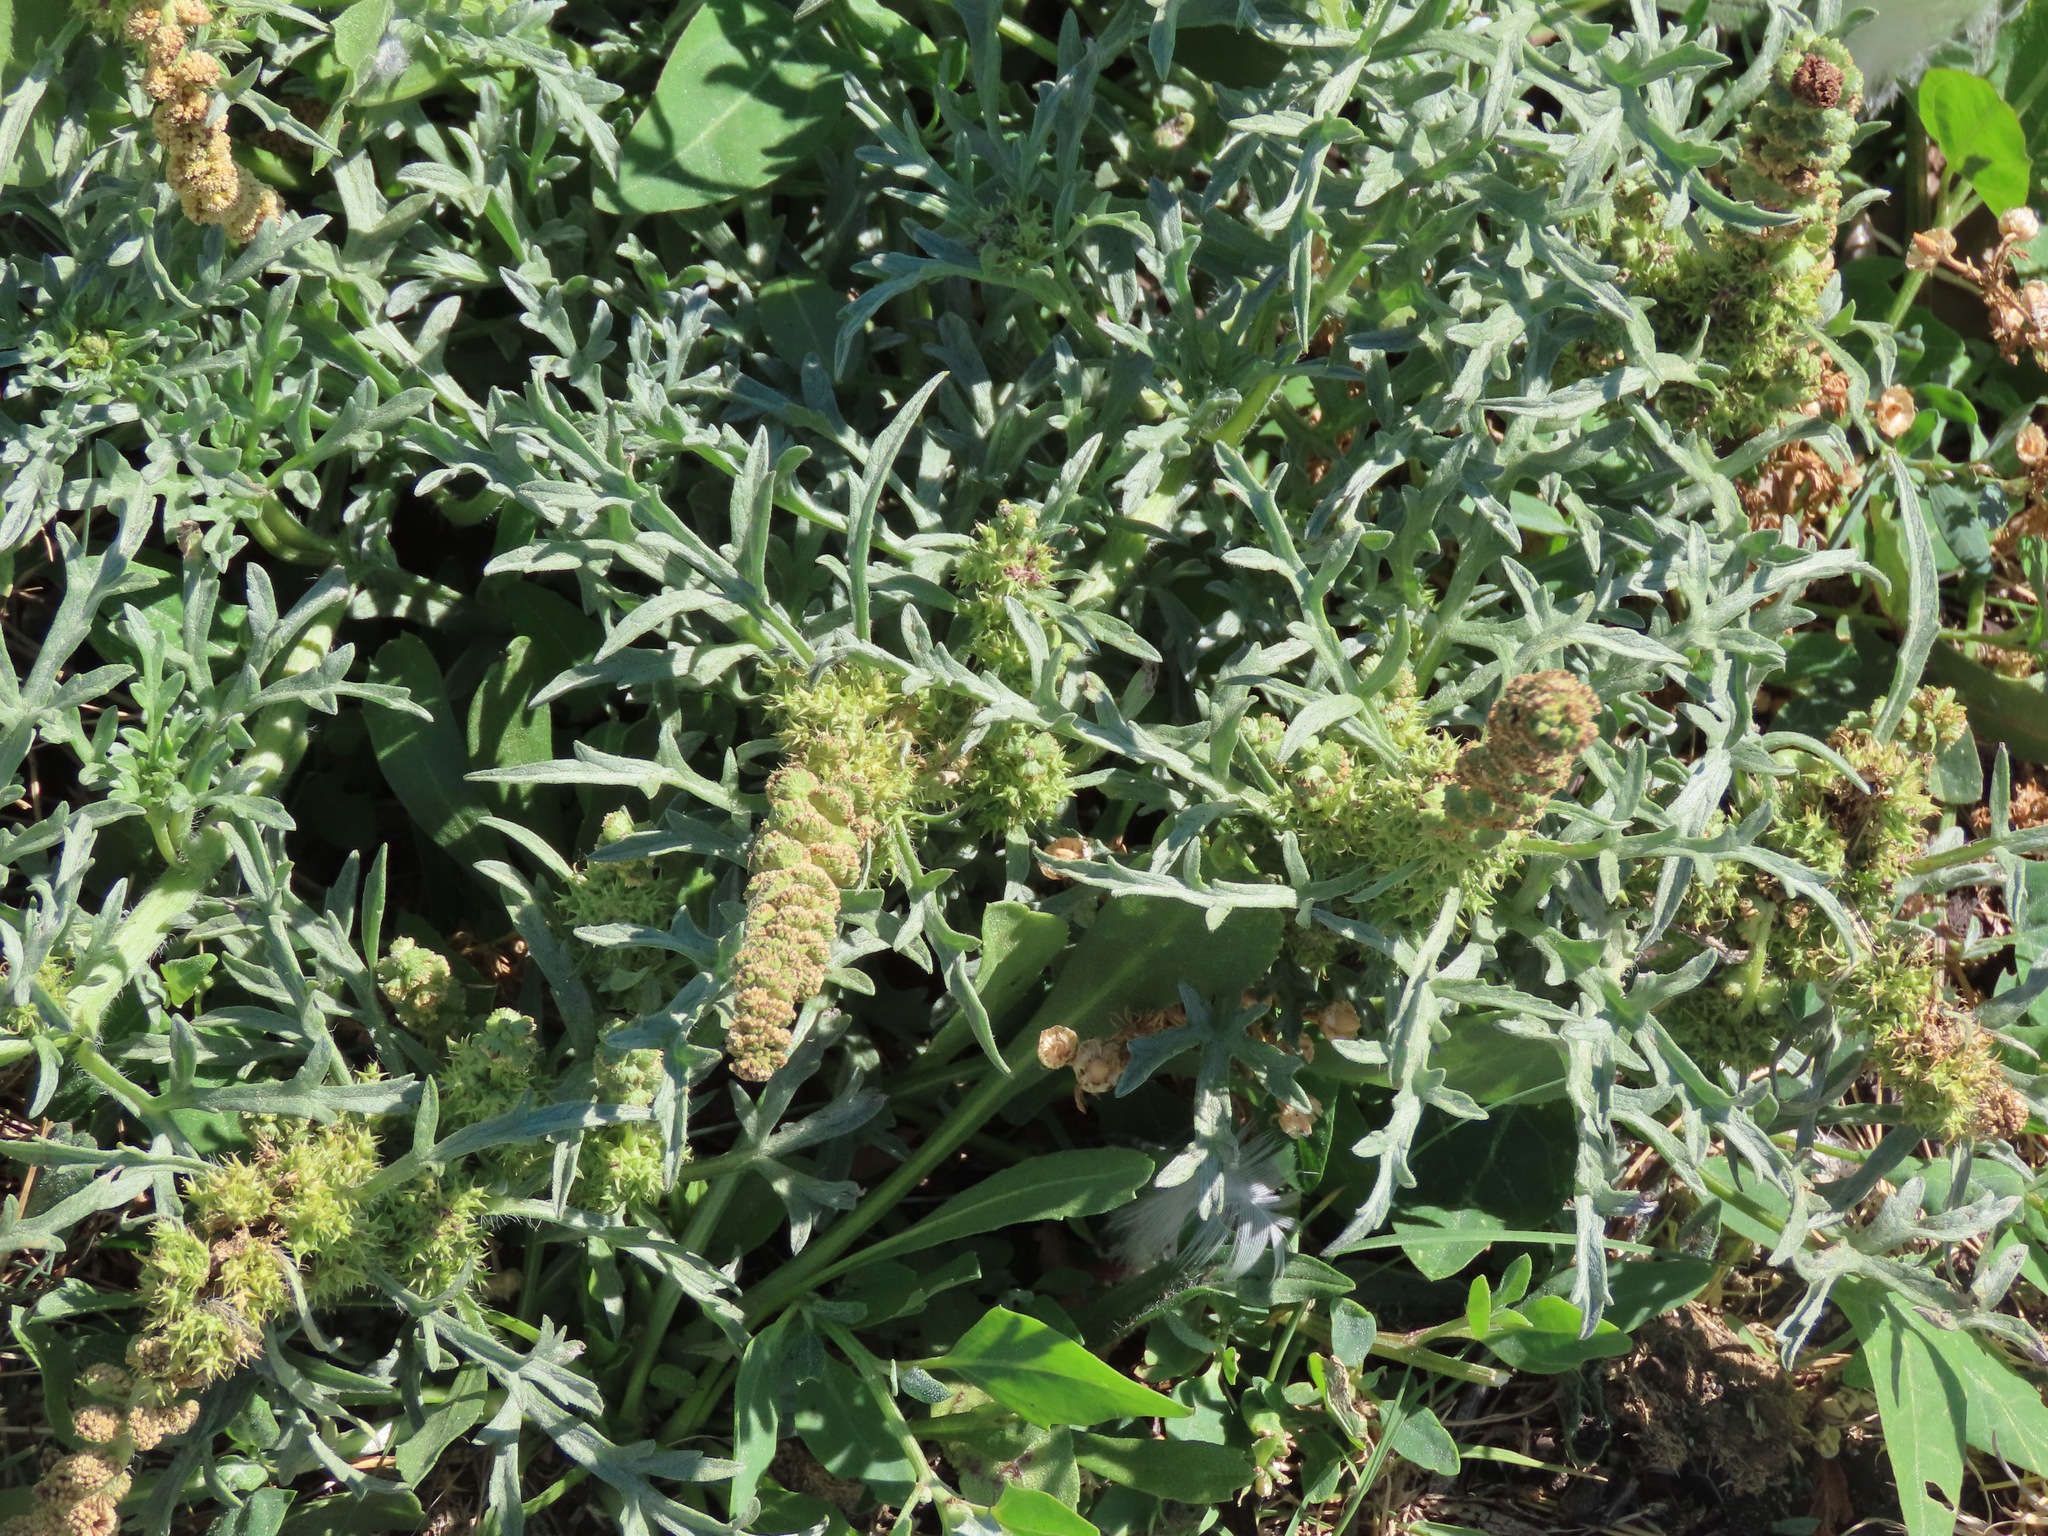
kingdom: Plantae
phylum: Tracheophyta
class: Magnoliopsida
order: Asterales
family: Asteraceae
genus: Ambrosia
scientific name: Ambrosia chamissonis
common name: Beachbur
